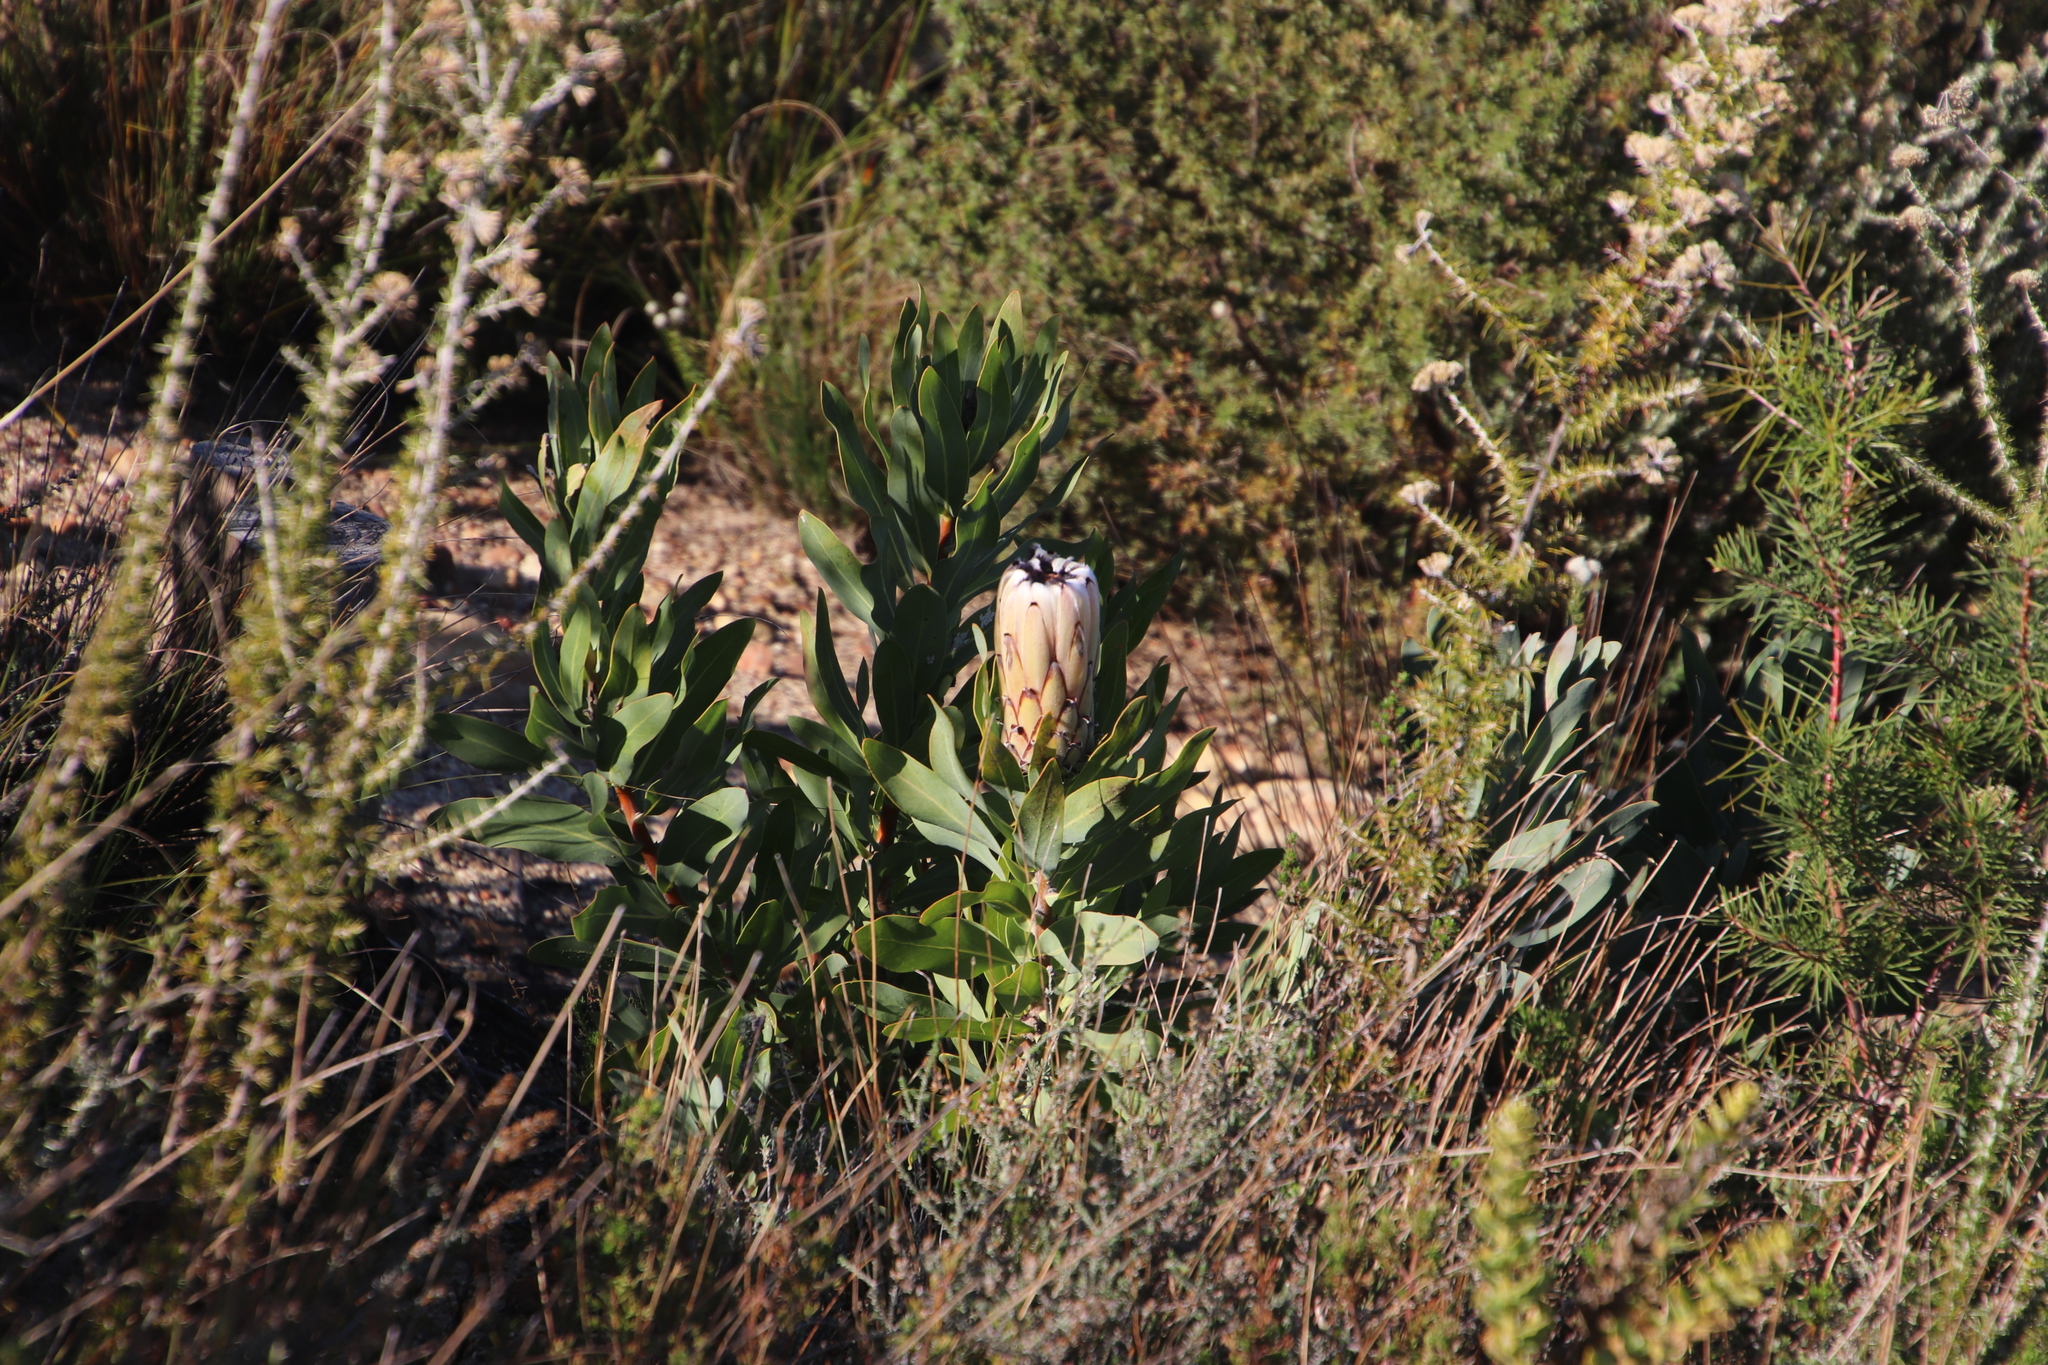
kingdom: Plantae
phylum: Tracheophyta
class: Magnoliopsida
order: Proteales
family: Proteaceae
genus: Protea
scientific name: Protea laurifolia
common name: Grey-leaf sugarbsh
